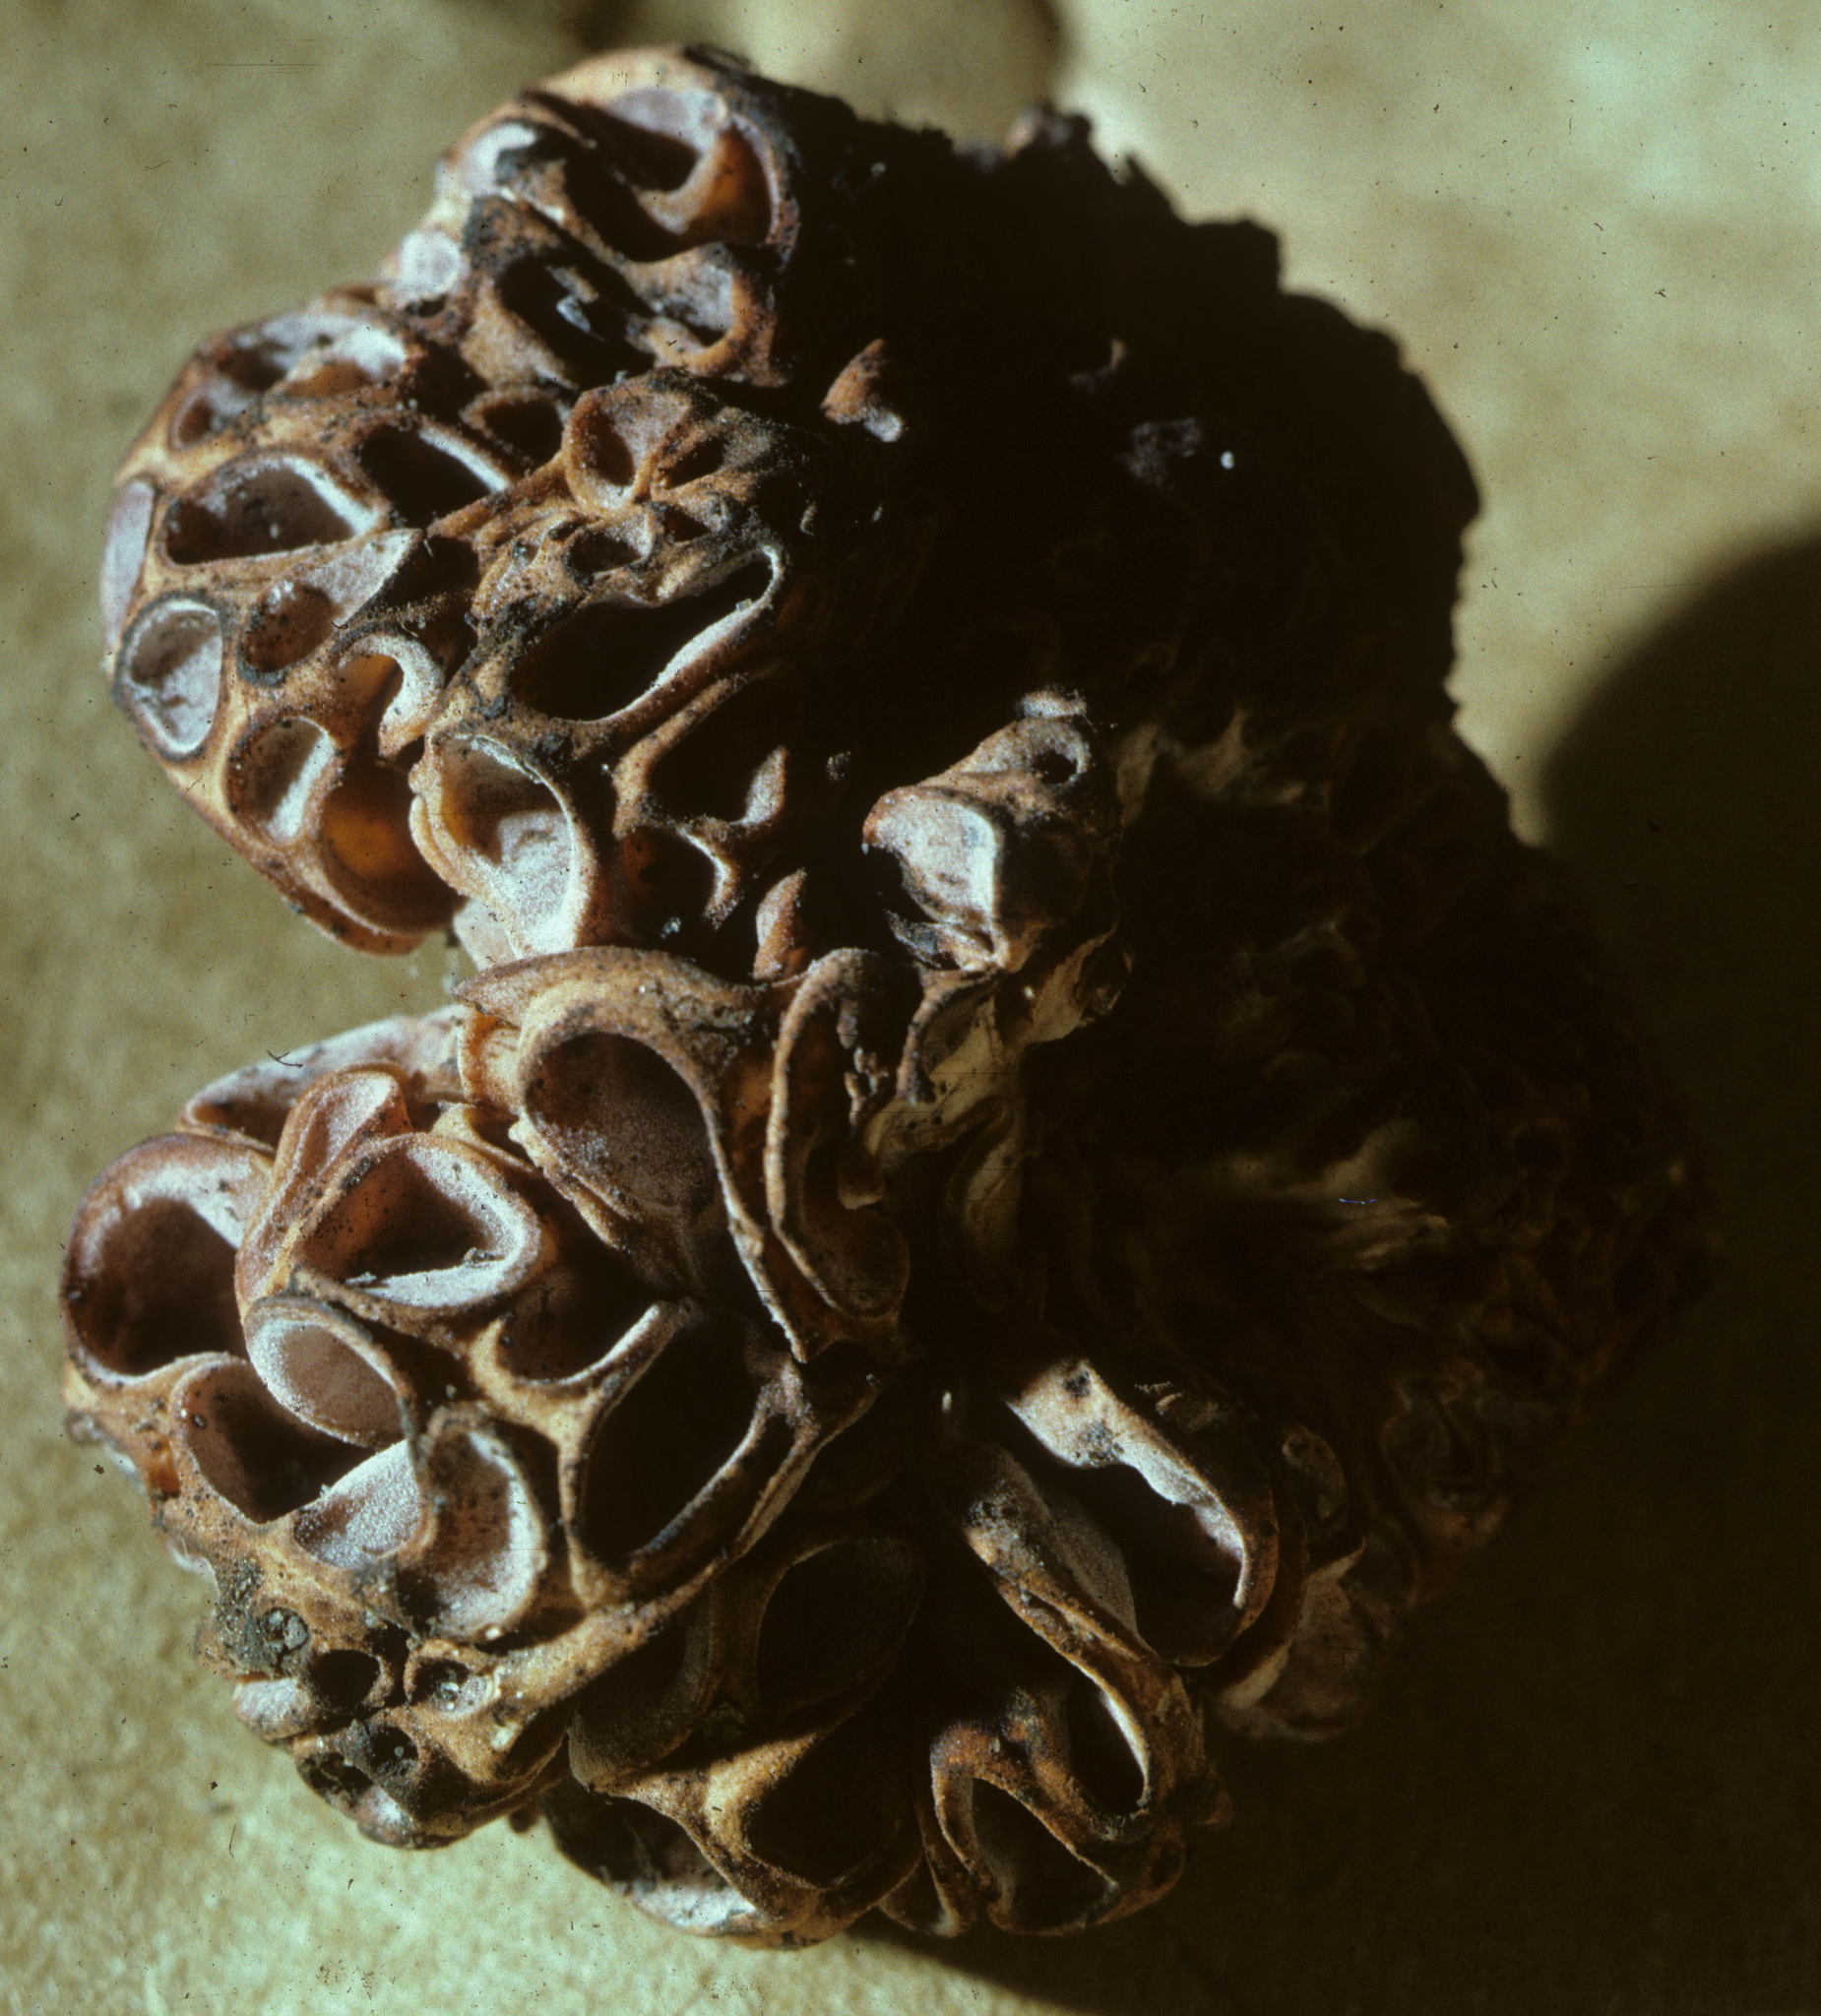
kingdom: Fungi
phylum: Ascomycota
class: Pezizomycetes
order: Pezizales
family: Wynneaceae
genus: Wynnea
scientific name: Wynnea sparassoides
